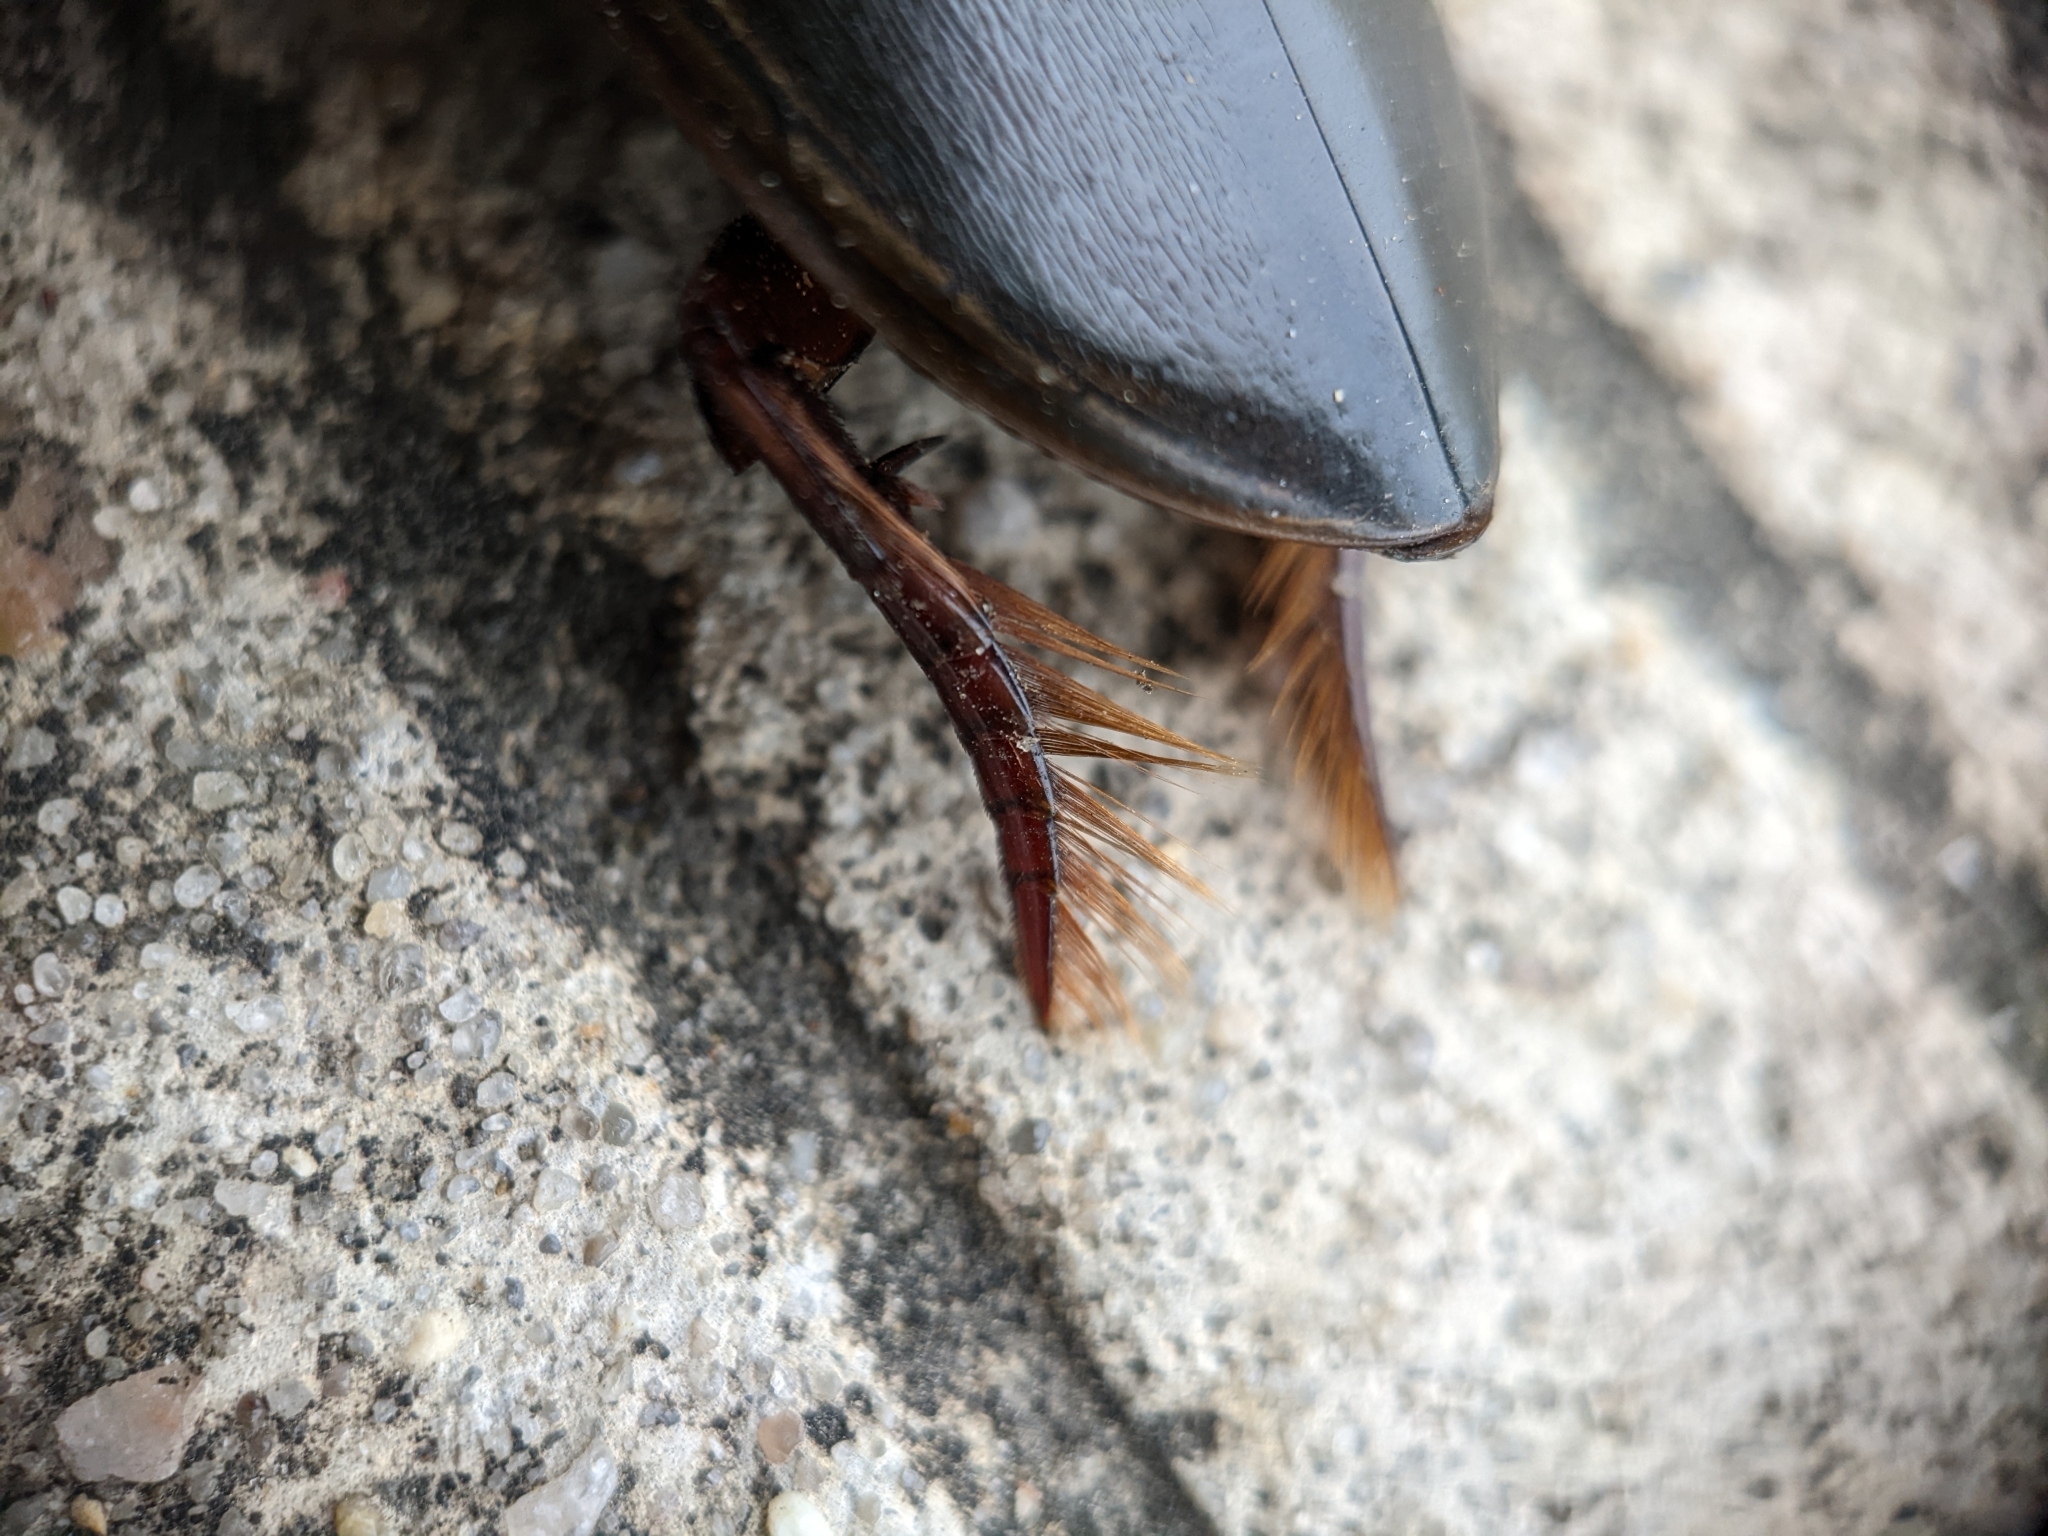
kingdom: Animalia
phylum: Arthropoda
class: Insecta
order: Coleoptera
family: Dytiscidae
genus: Cybister
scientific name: Cybister fimbriolatus
